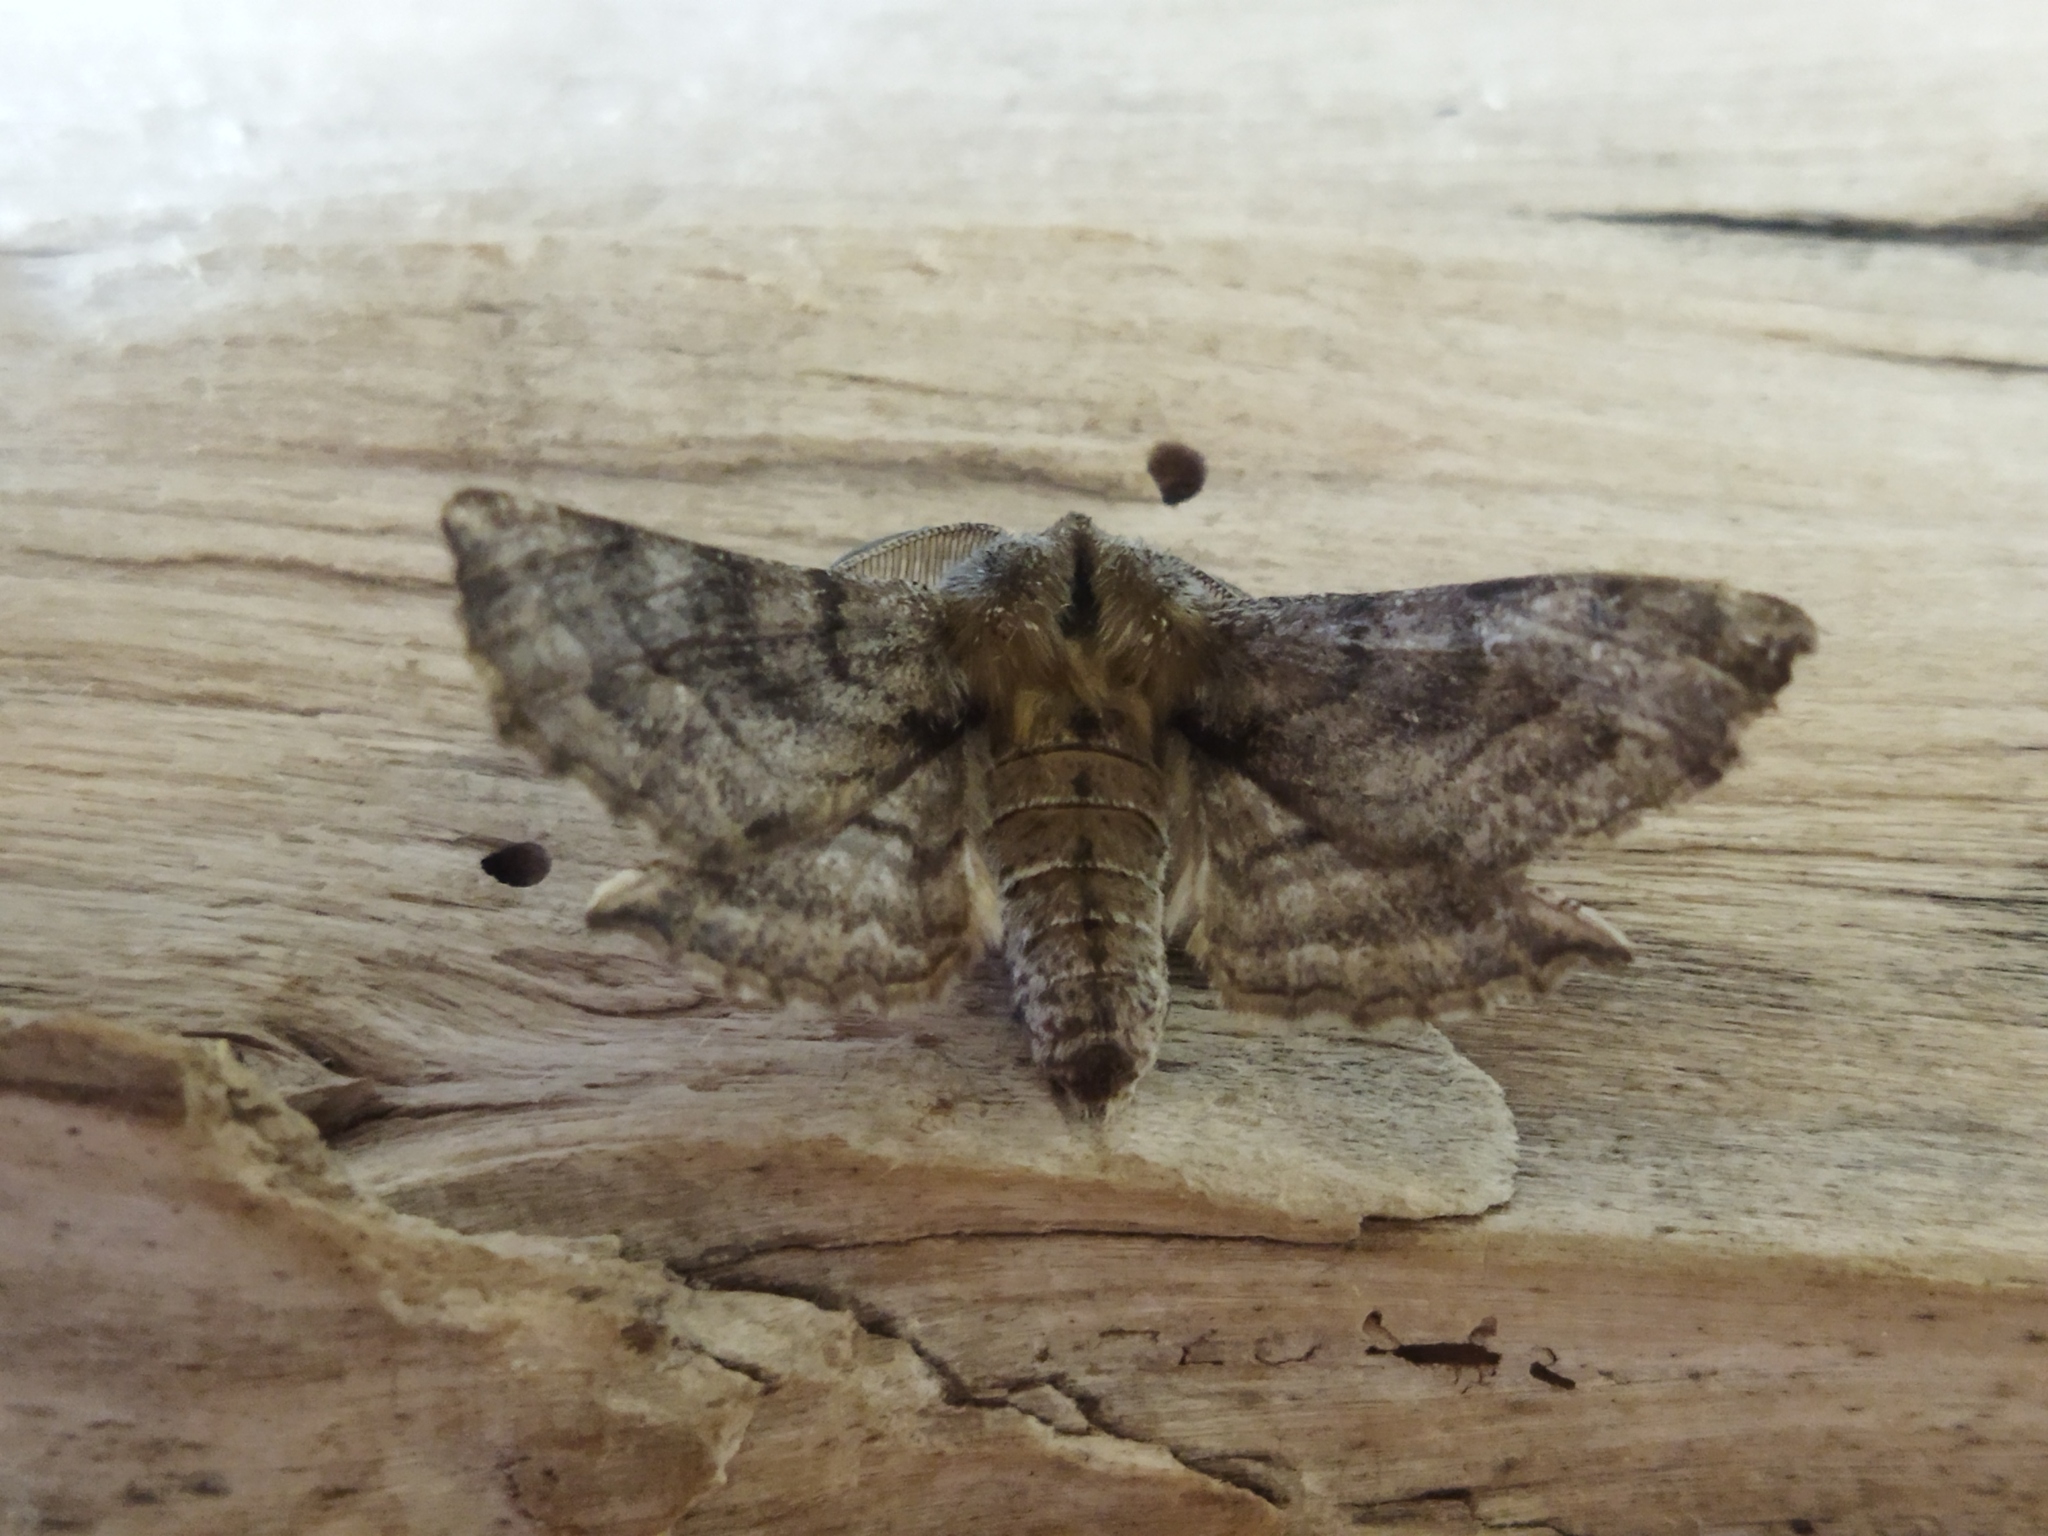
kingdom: Animalia
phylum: Arthropoda
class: Insecta
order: Lepidoptera
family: Geometridae
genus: Apochima
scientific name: Apochima flabellaria
